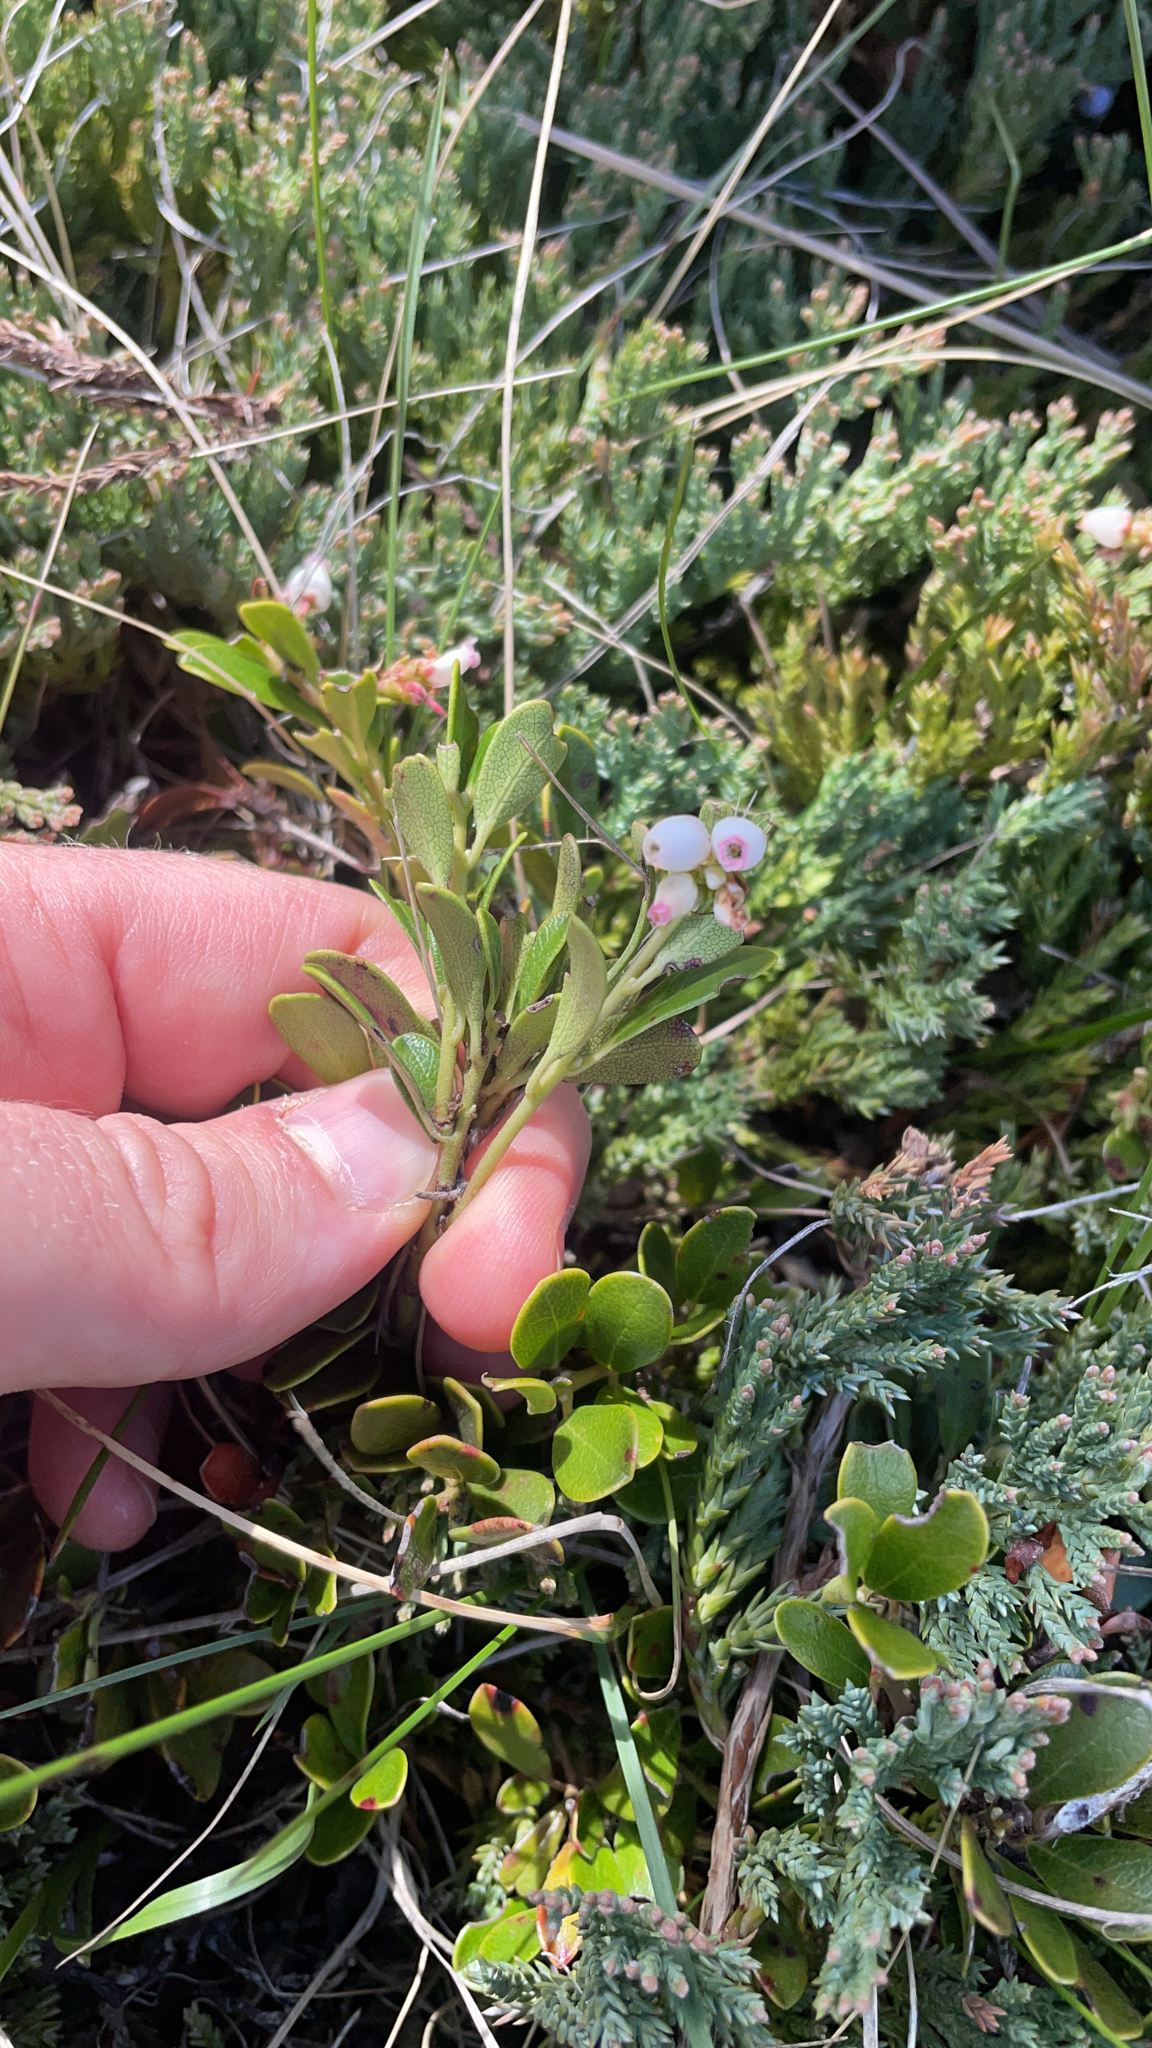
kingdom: Plantae
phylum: Tracheophyta
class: Magnoliopsida
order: Ericales
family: Ericaceae
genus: Arctostaphylos
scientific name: Arctostaphylos uva-ursi
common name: Bearberry
